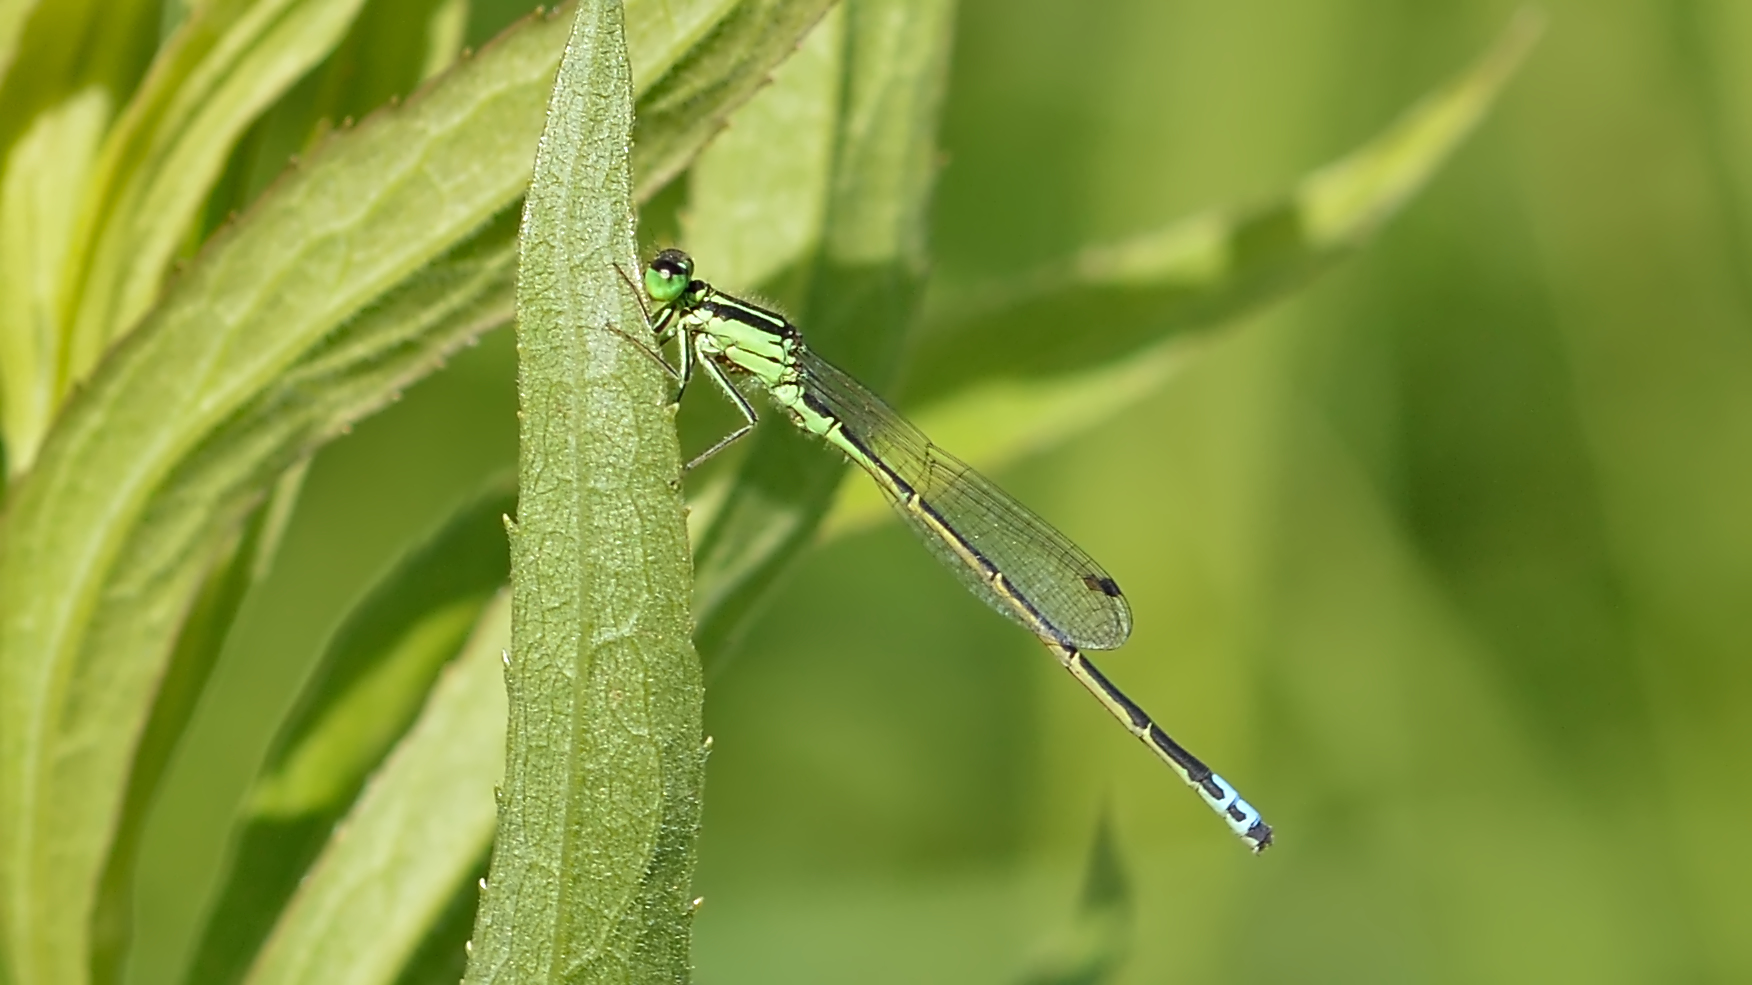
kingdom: Animalia
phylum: Arthropoda
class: Insecta
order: Odonata
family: Coenagrionidae
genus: Ischnura
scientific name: Ischnura verticalis
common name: Eastern forktail
